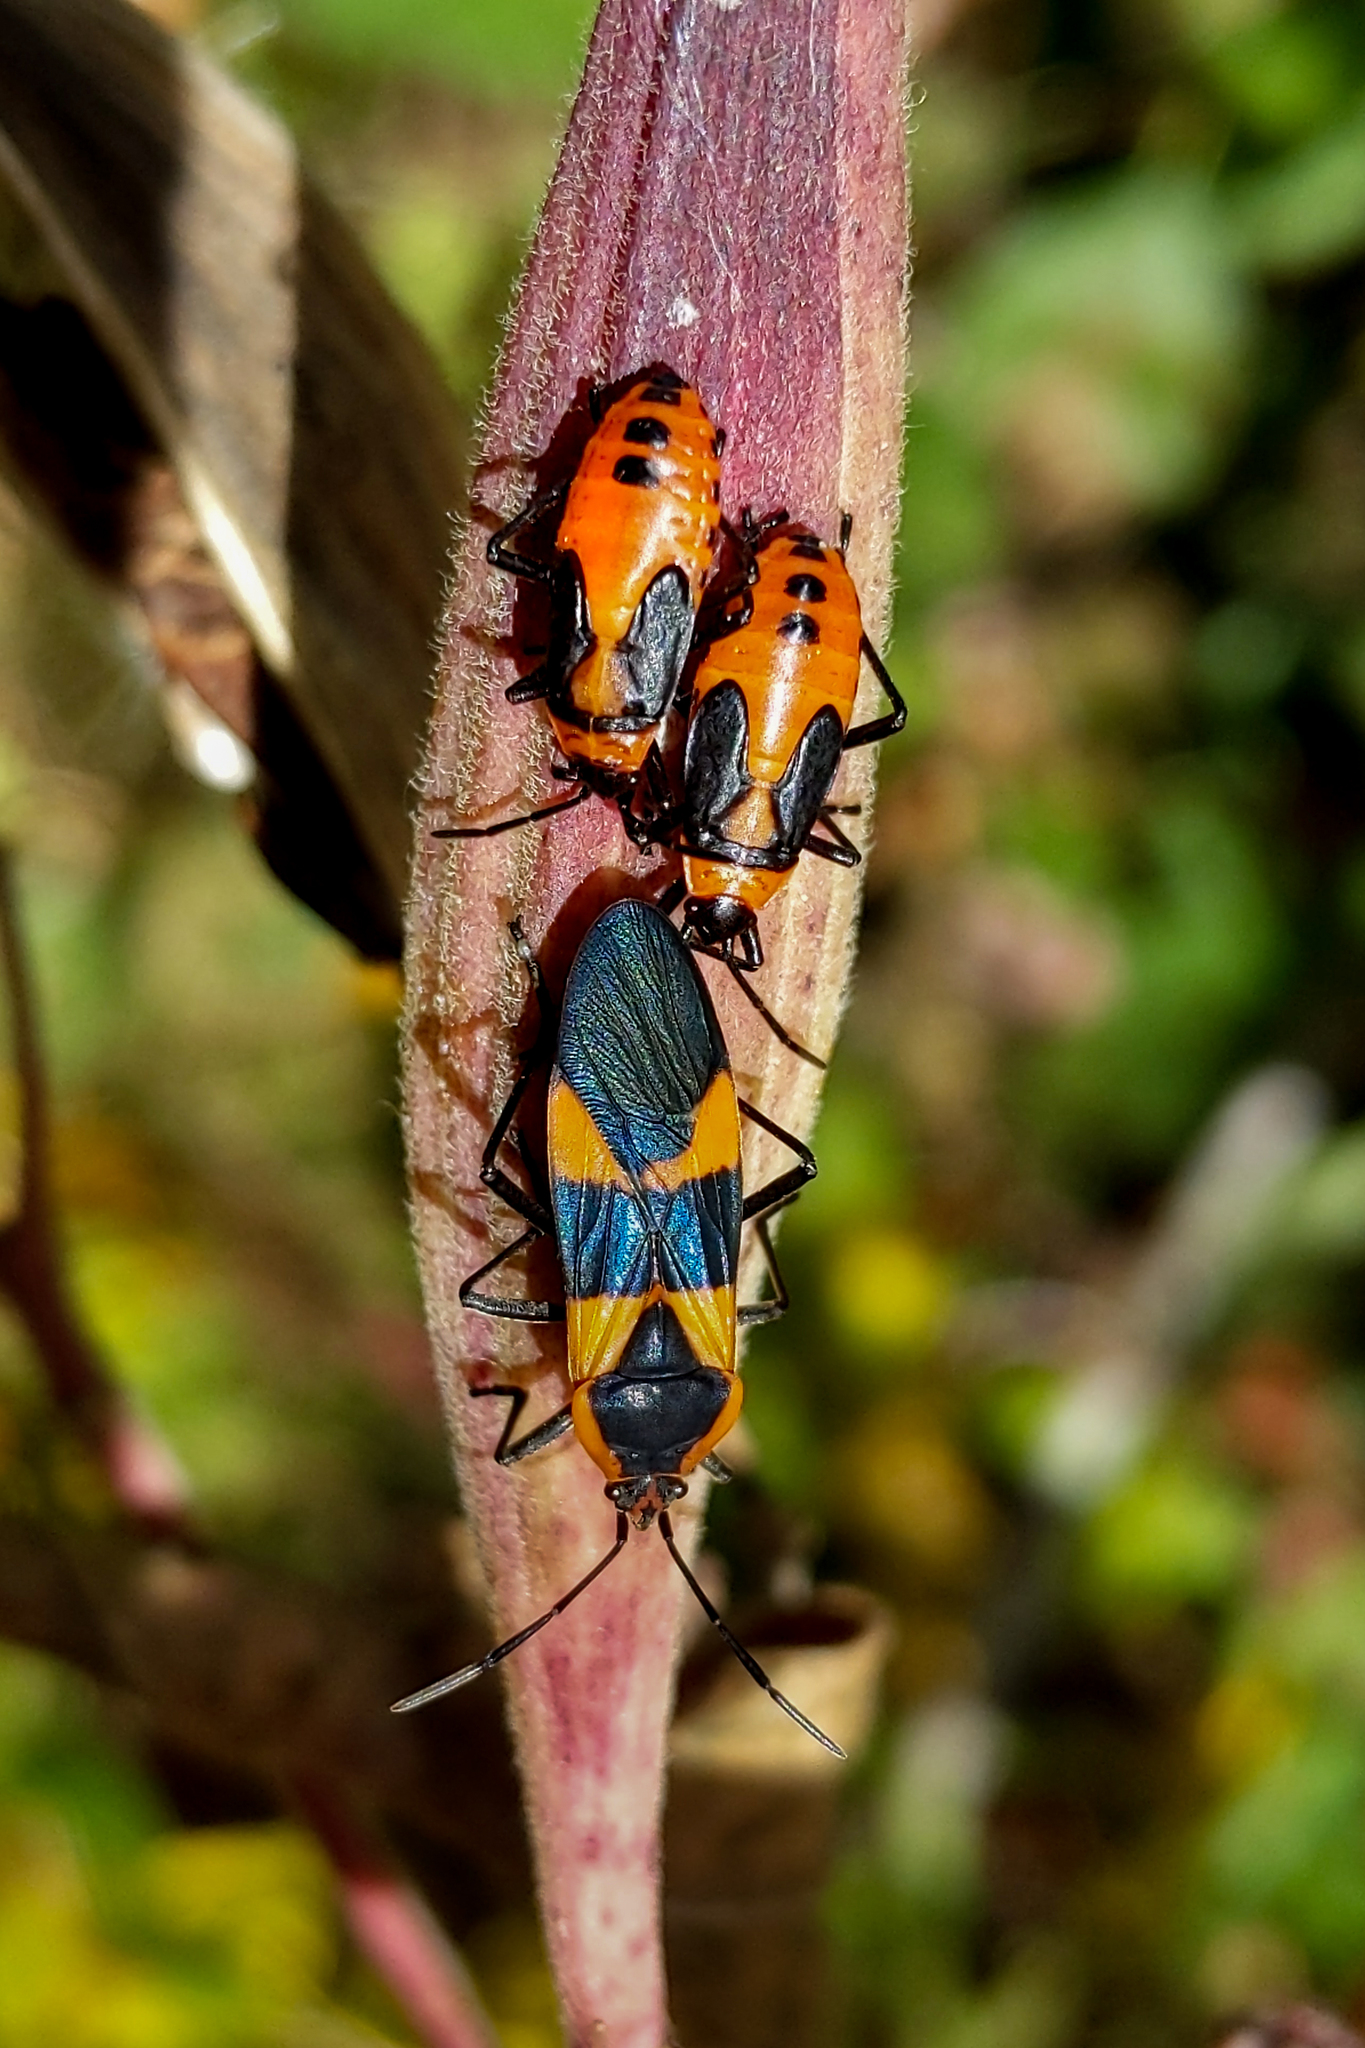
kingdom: Animalia
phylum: Arthropoda
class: Insecta
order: Hemiptera
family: Lygaeidae
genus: Oncopeltus
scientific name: Oncopeltus fasciatus
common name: Large milkweed bug
